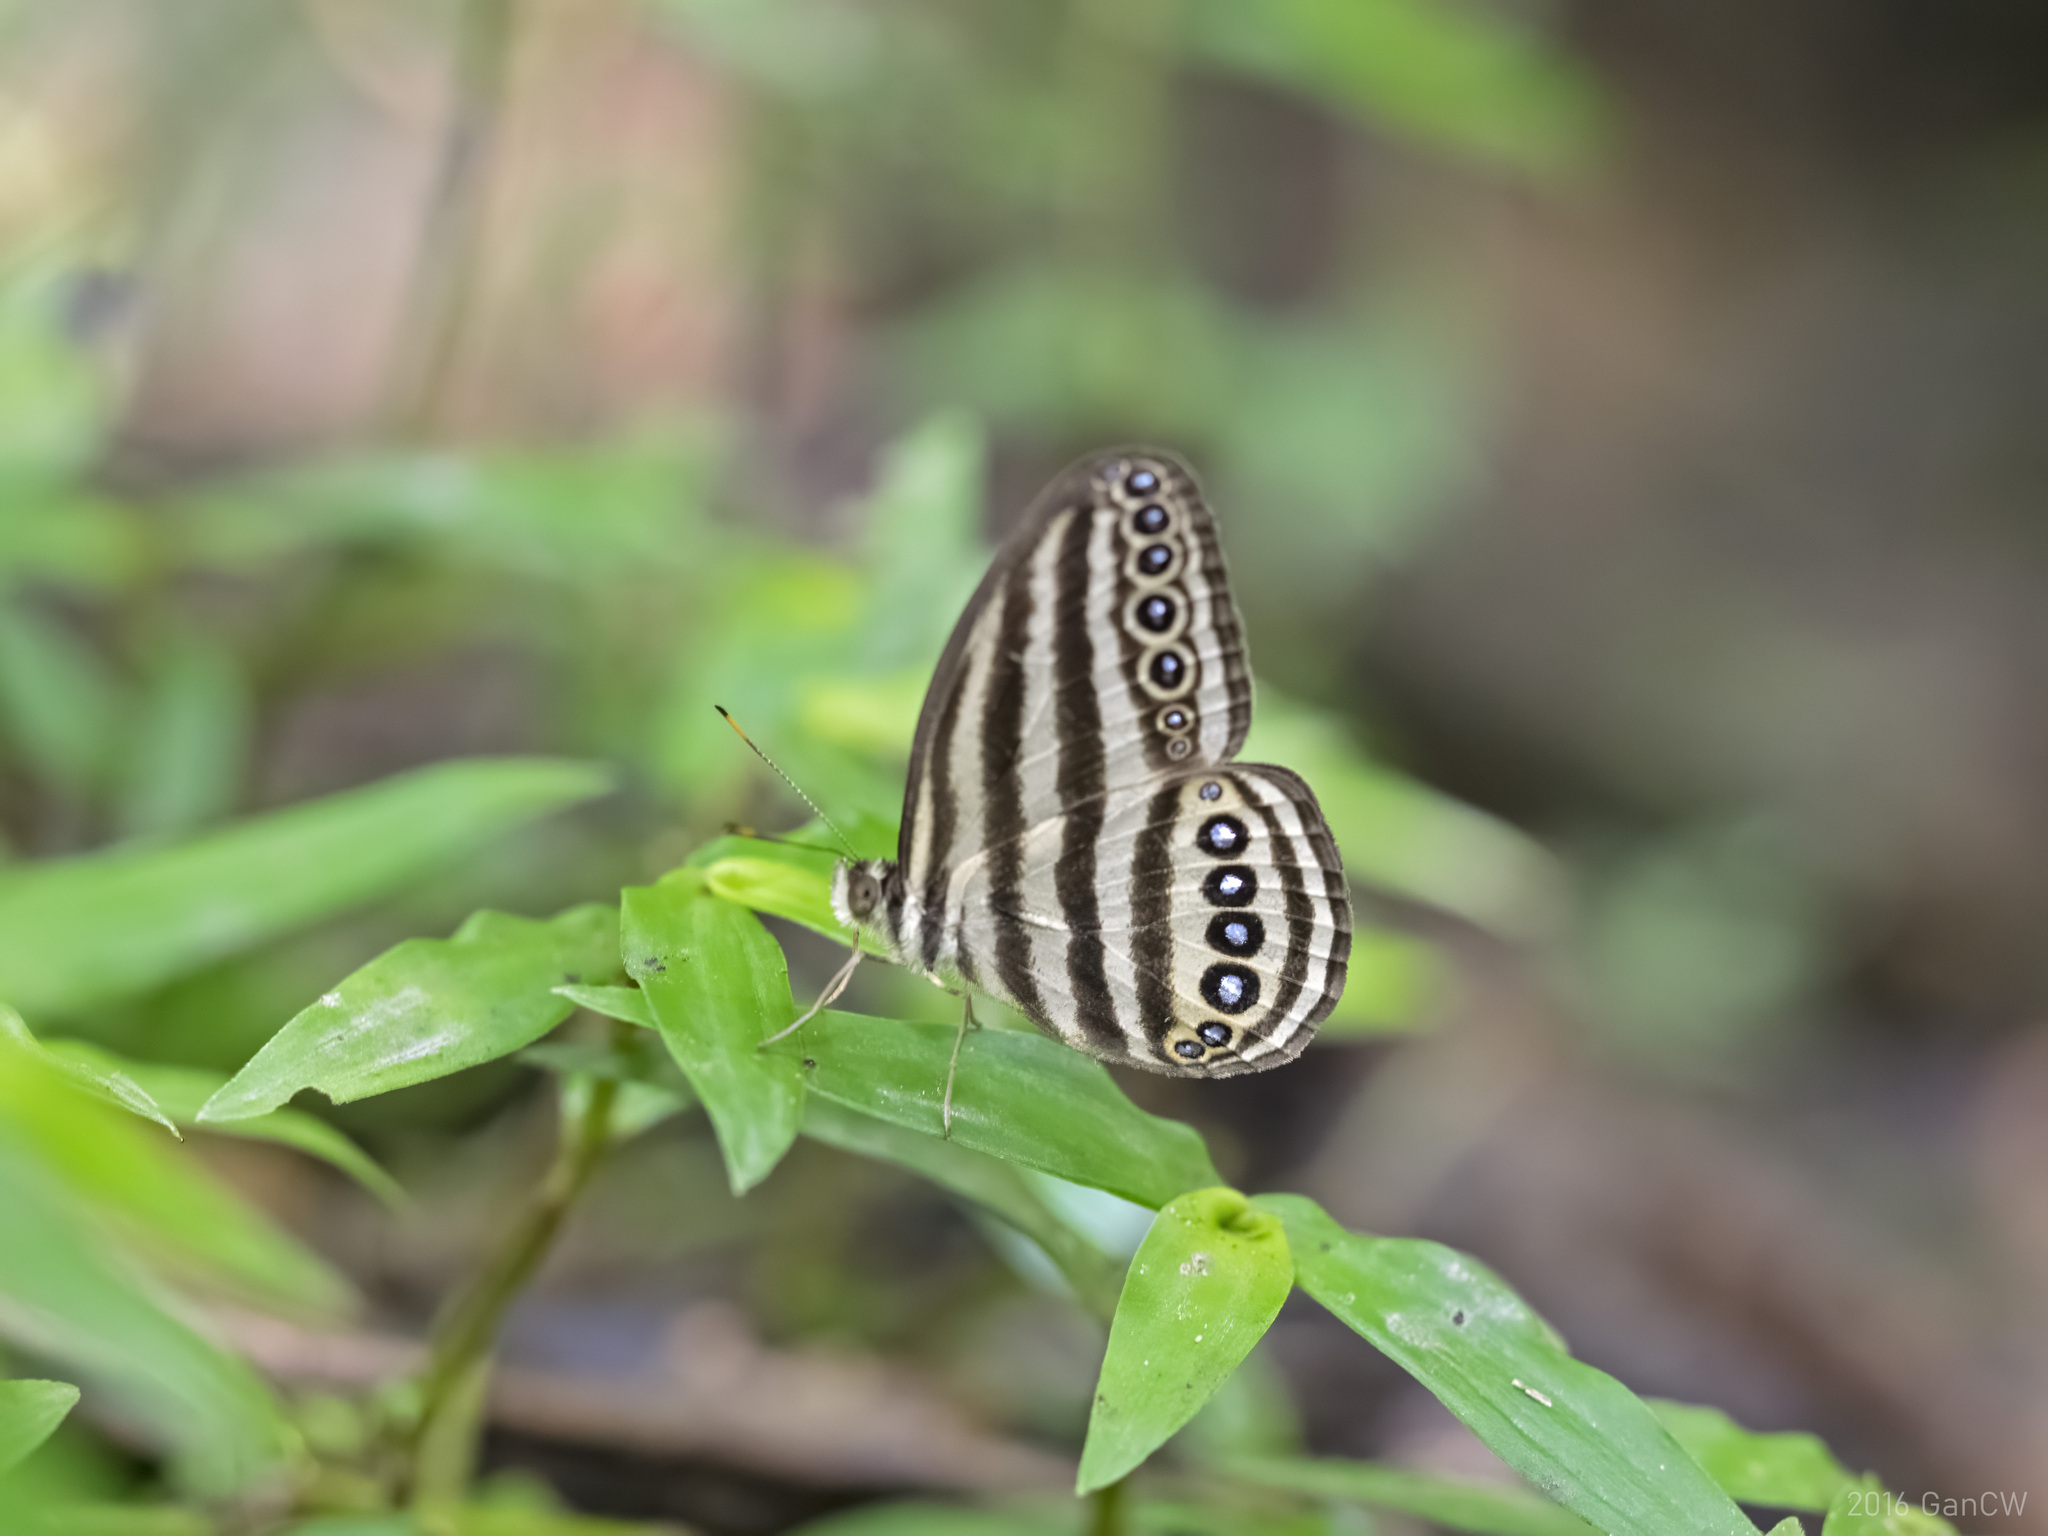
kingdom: Animalia
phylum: Arthropoda
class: Insecta
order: Lepidoptera
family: Nymphalidae
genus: Ragadia
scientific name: Ragadia makuta
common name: Striped ringlet
